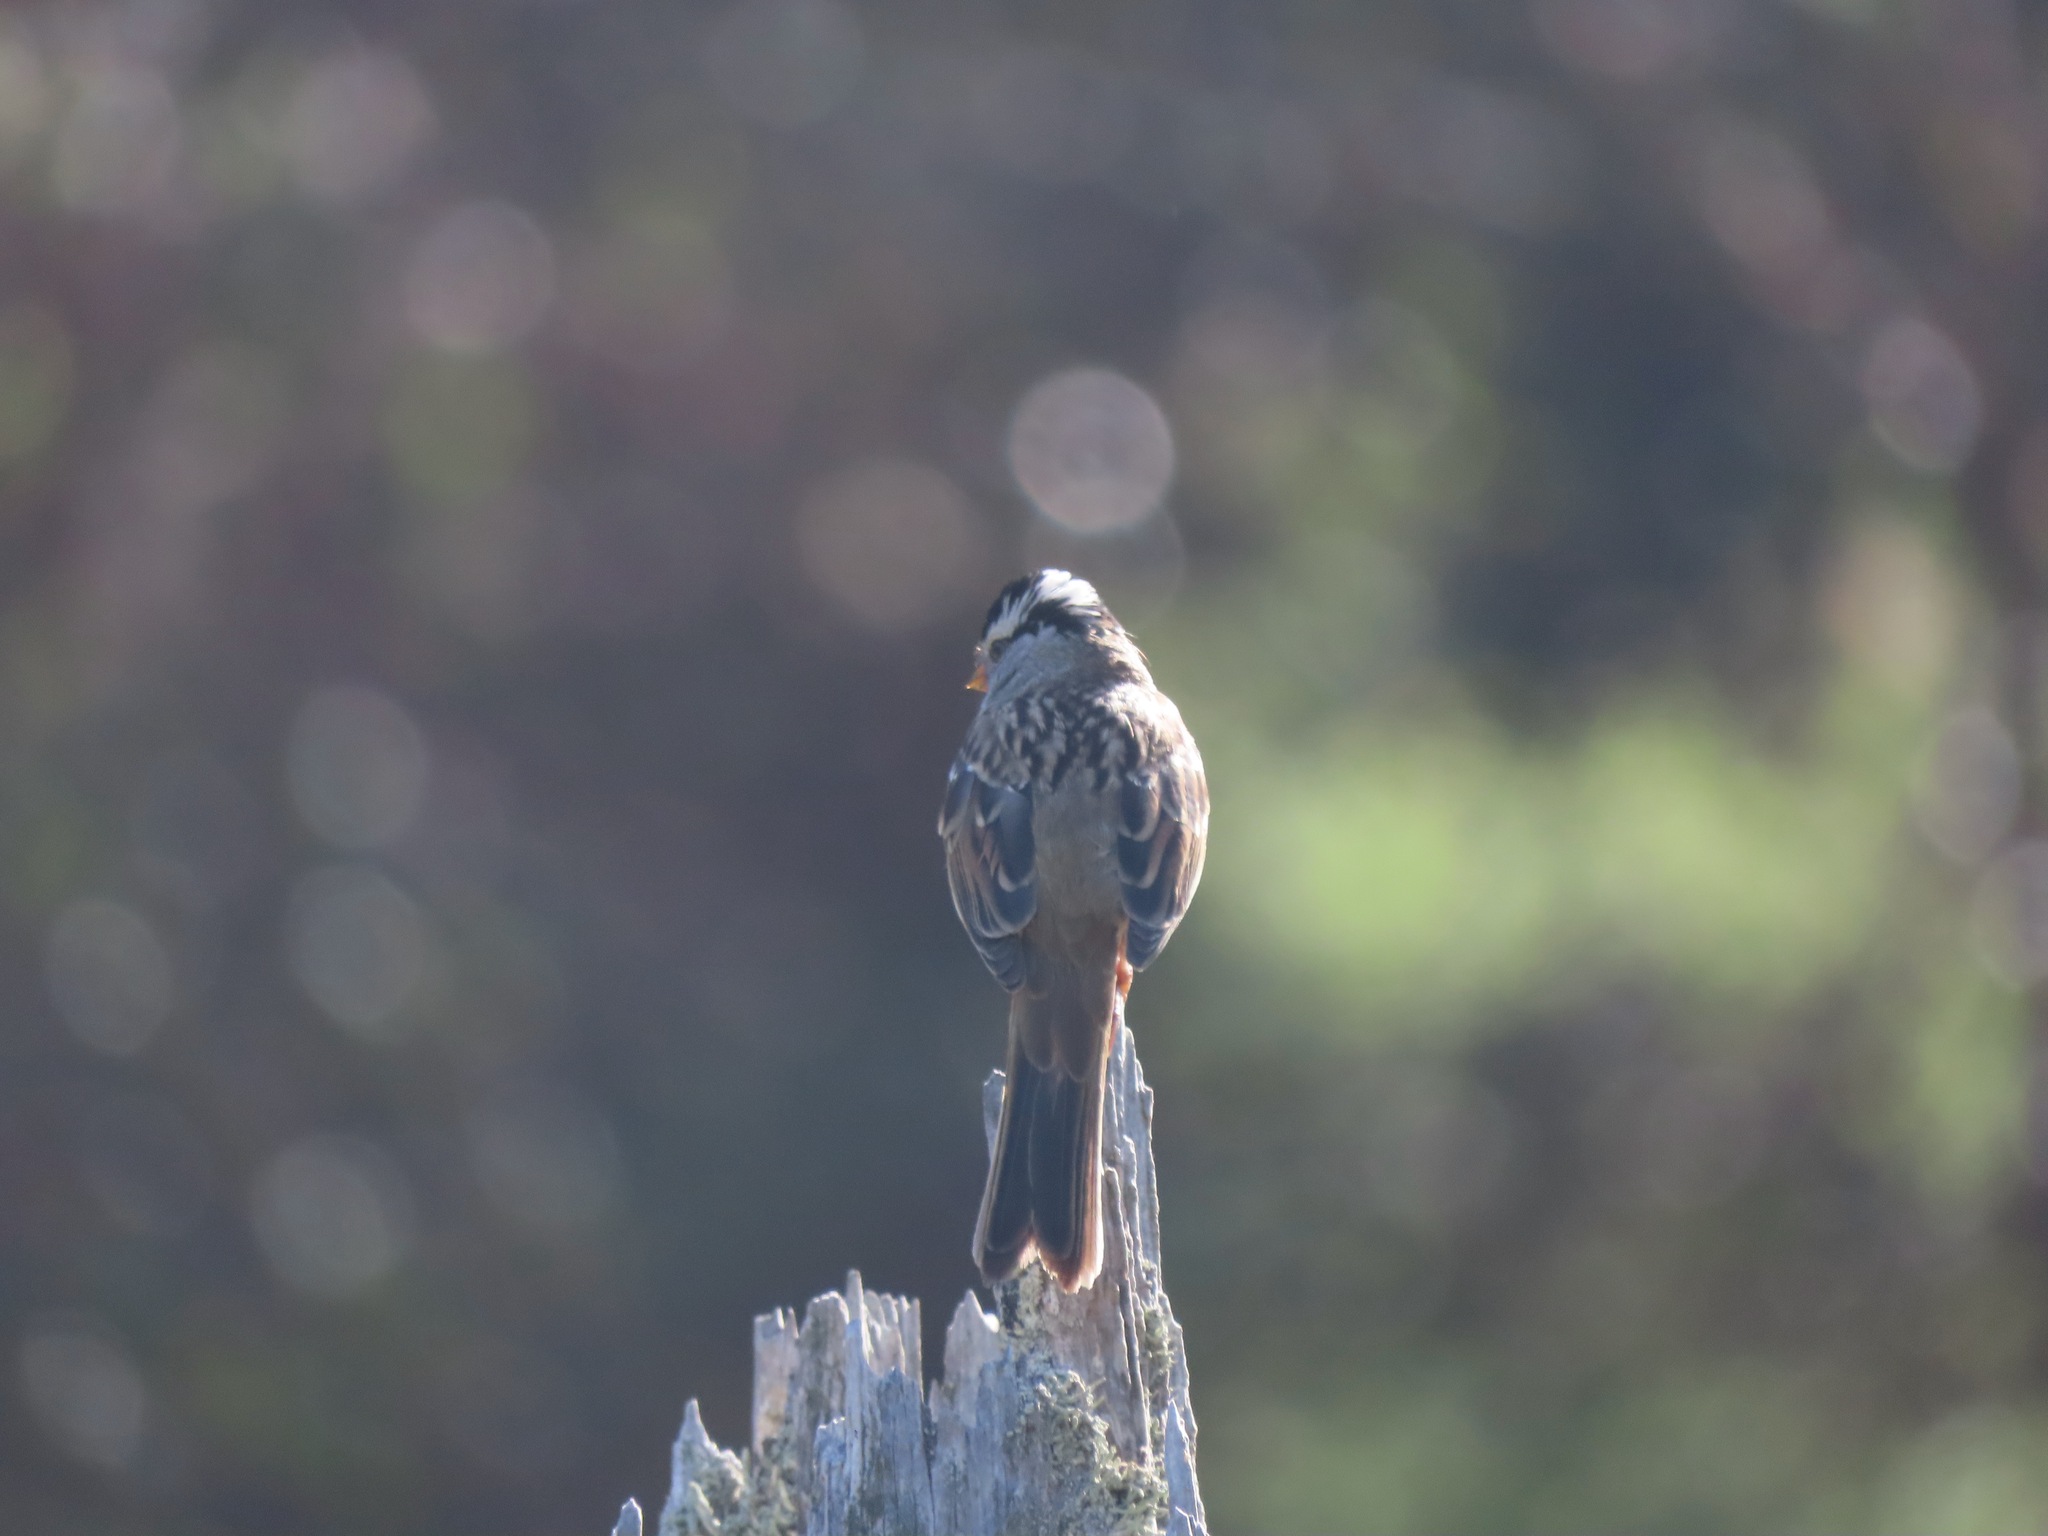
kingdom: Animalia
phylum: Chordata
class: Aves
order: Passeriformes
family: Passerellidae
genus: Zonotrichia
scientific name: Zonotrichia leucophrys
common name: White-crowned sparrow
